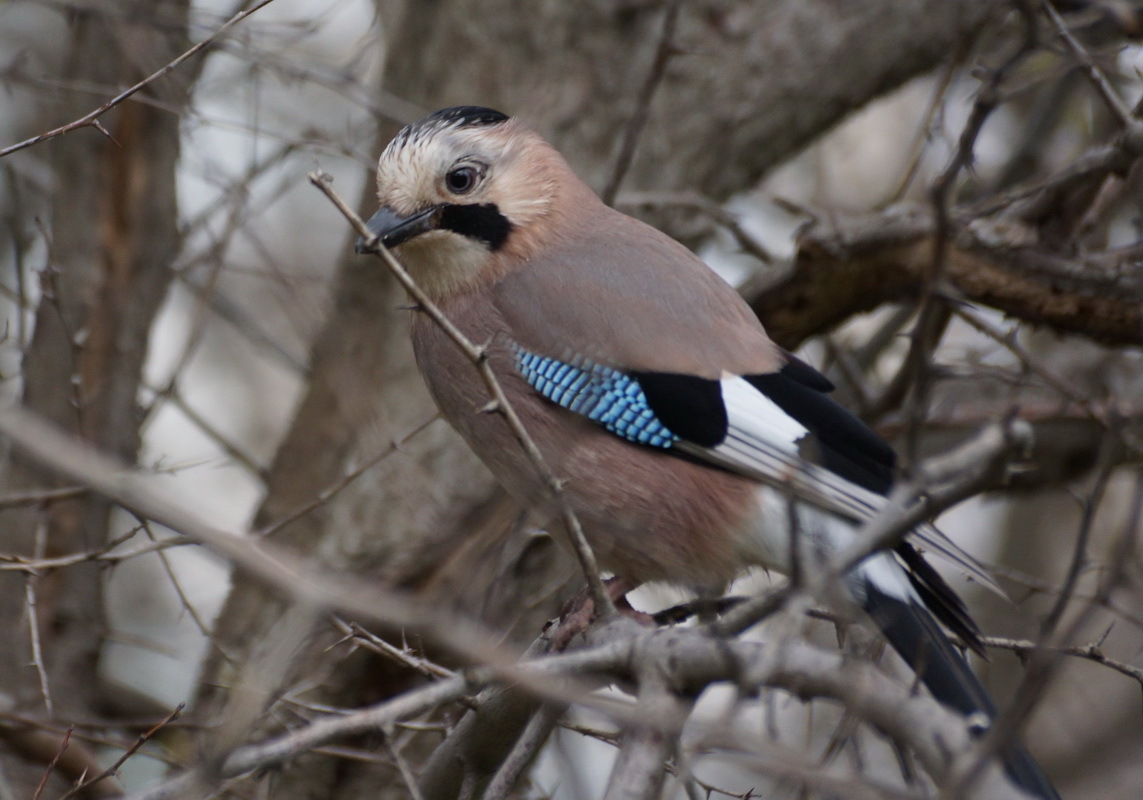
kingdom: Animalia
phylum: Chordata
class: Aves
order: Passeriformes
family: Corvidae
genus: Garrulus
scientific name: Garrulus glandarius
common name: Eurasian jay
